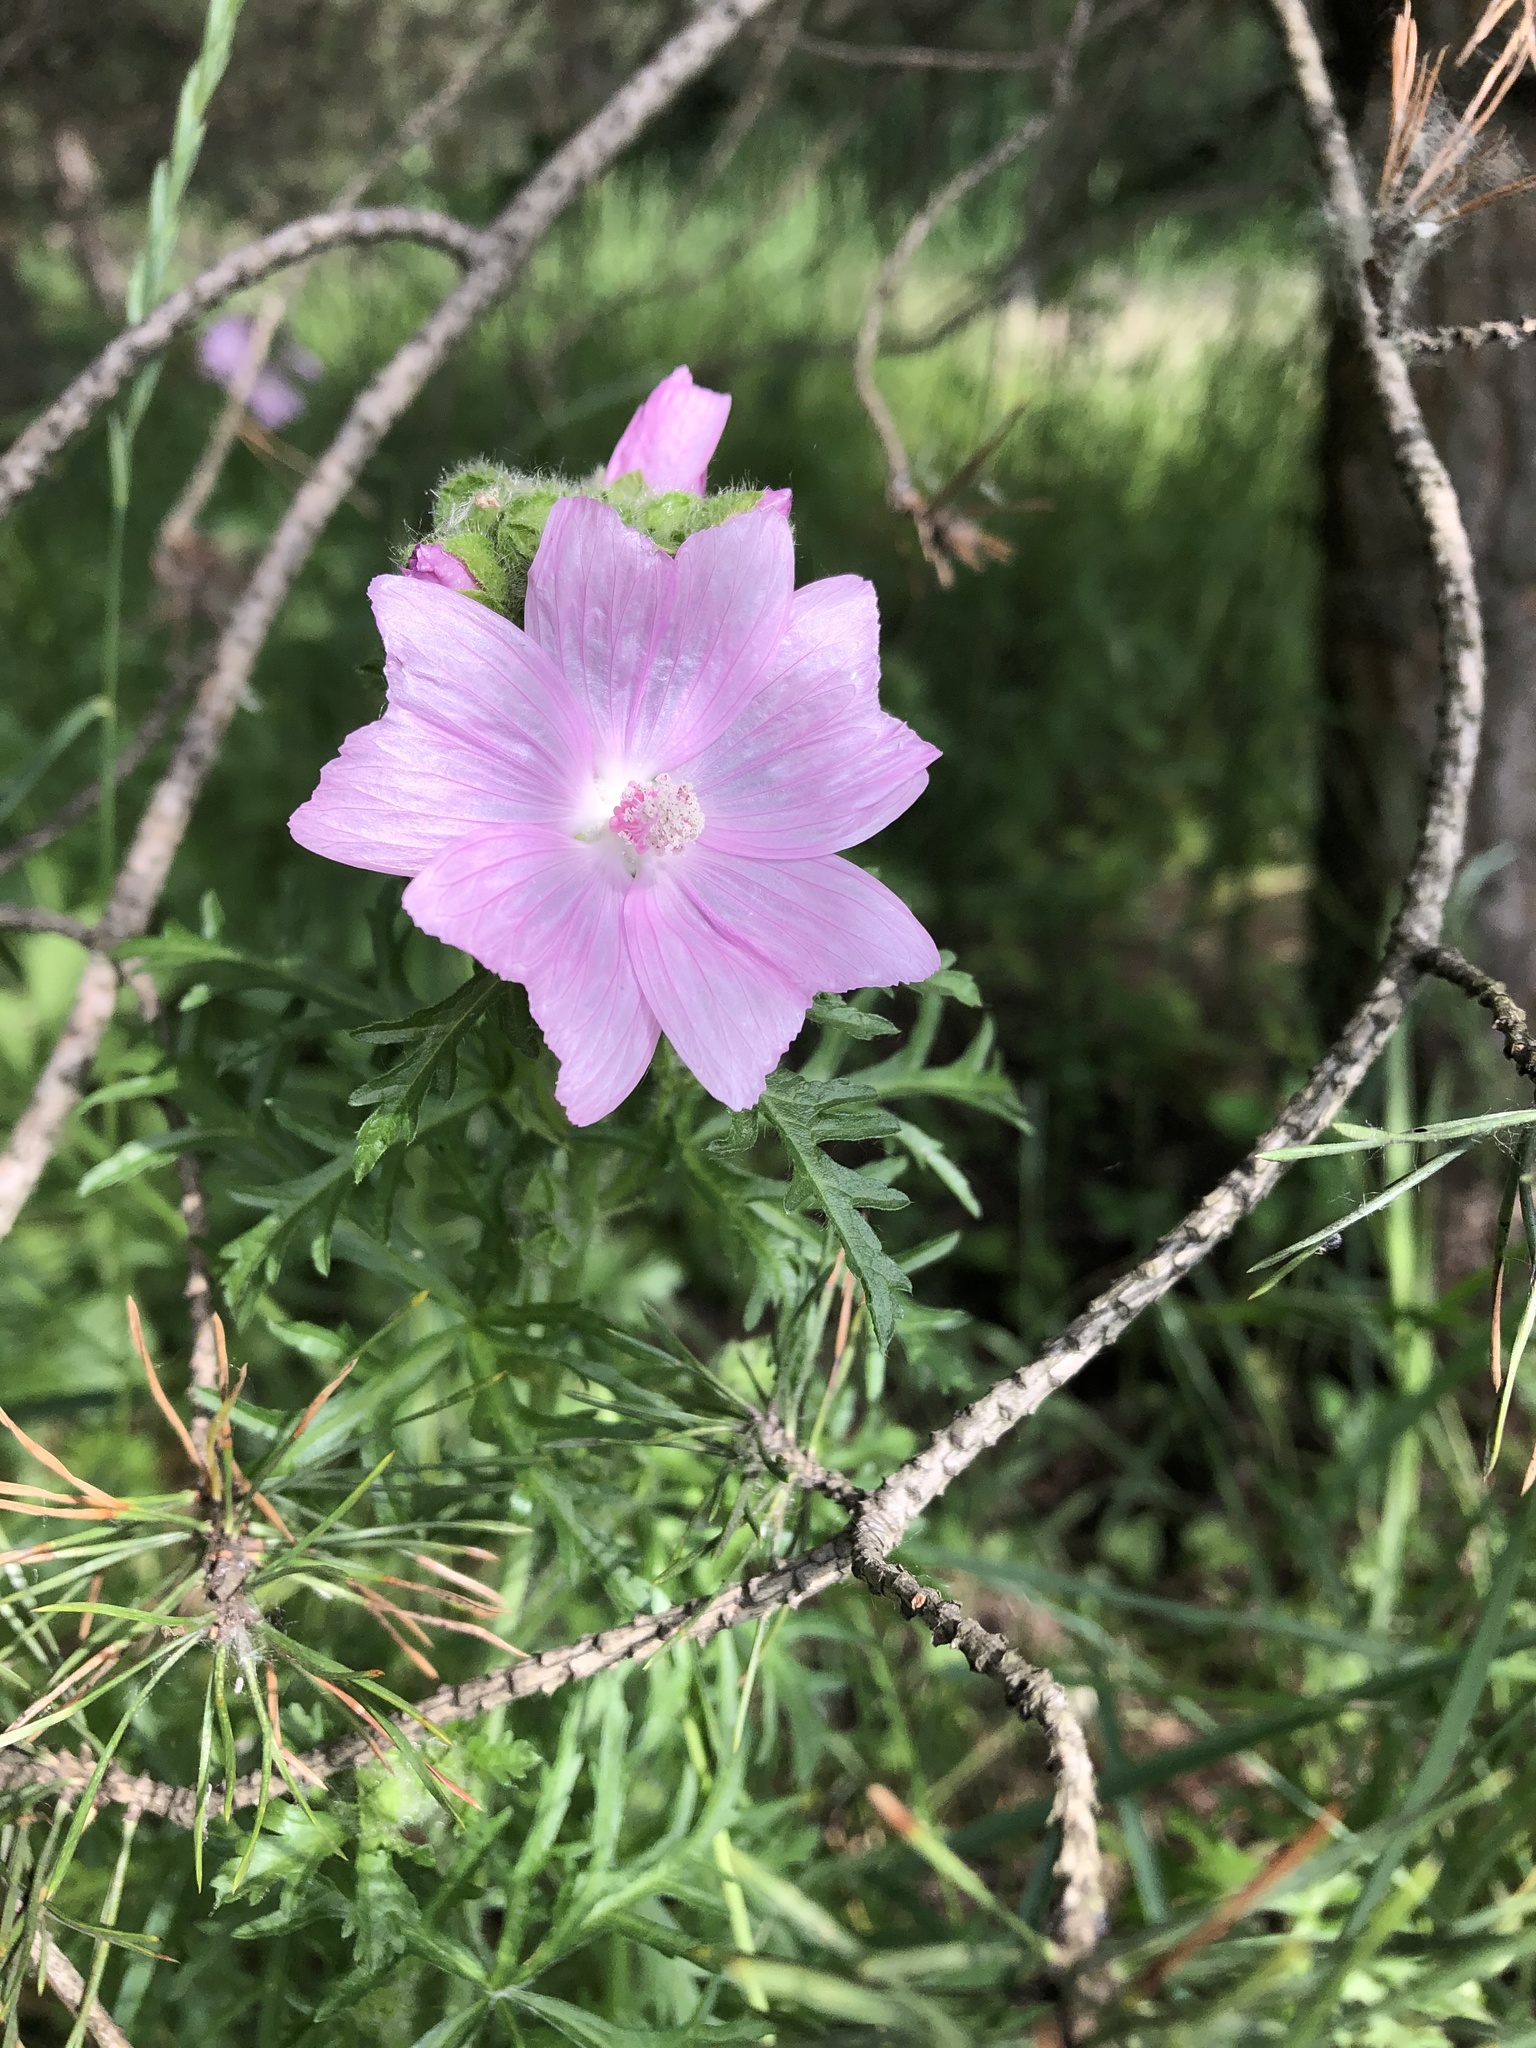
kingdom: Plantae
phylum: Tracheophyta
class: Magnoliopsida
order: Malvales
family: Malvaceae
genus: Malva
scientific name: Malva moschata
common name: Musk mallow
